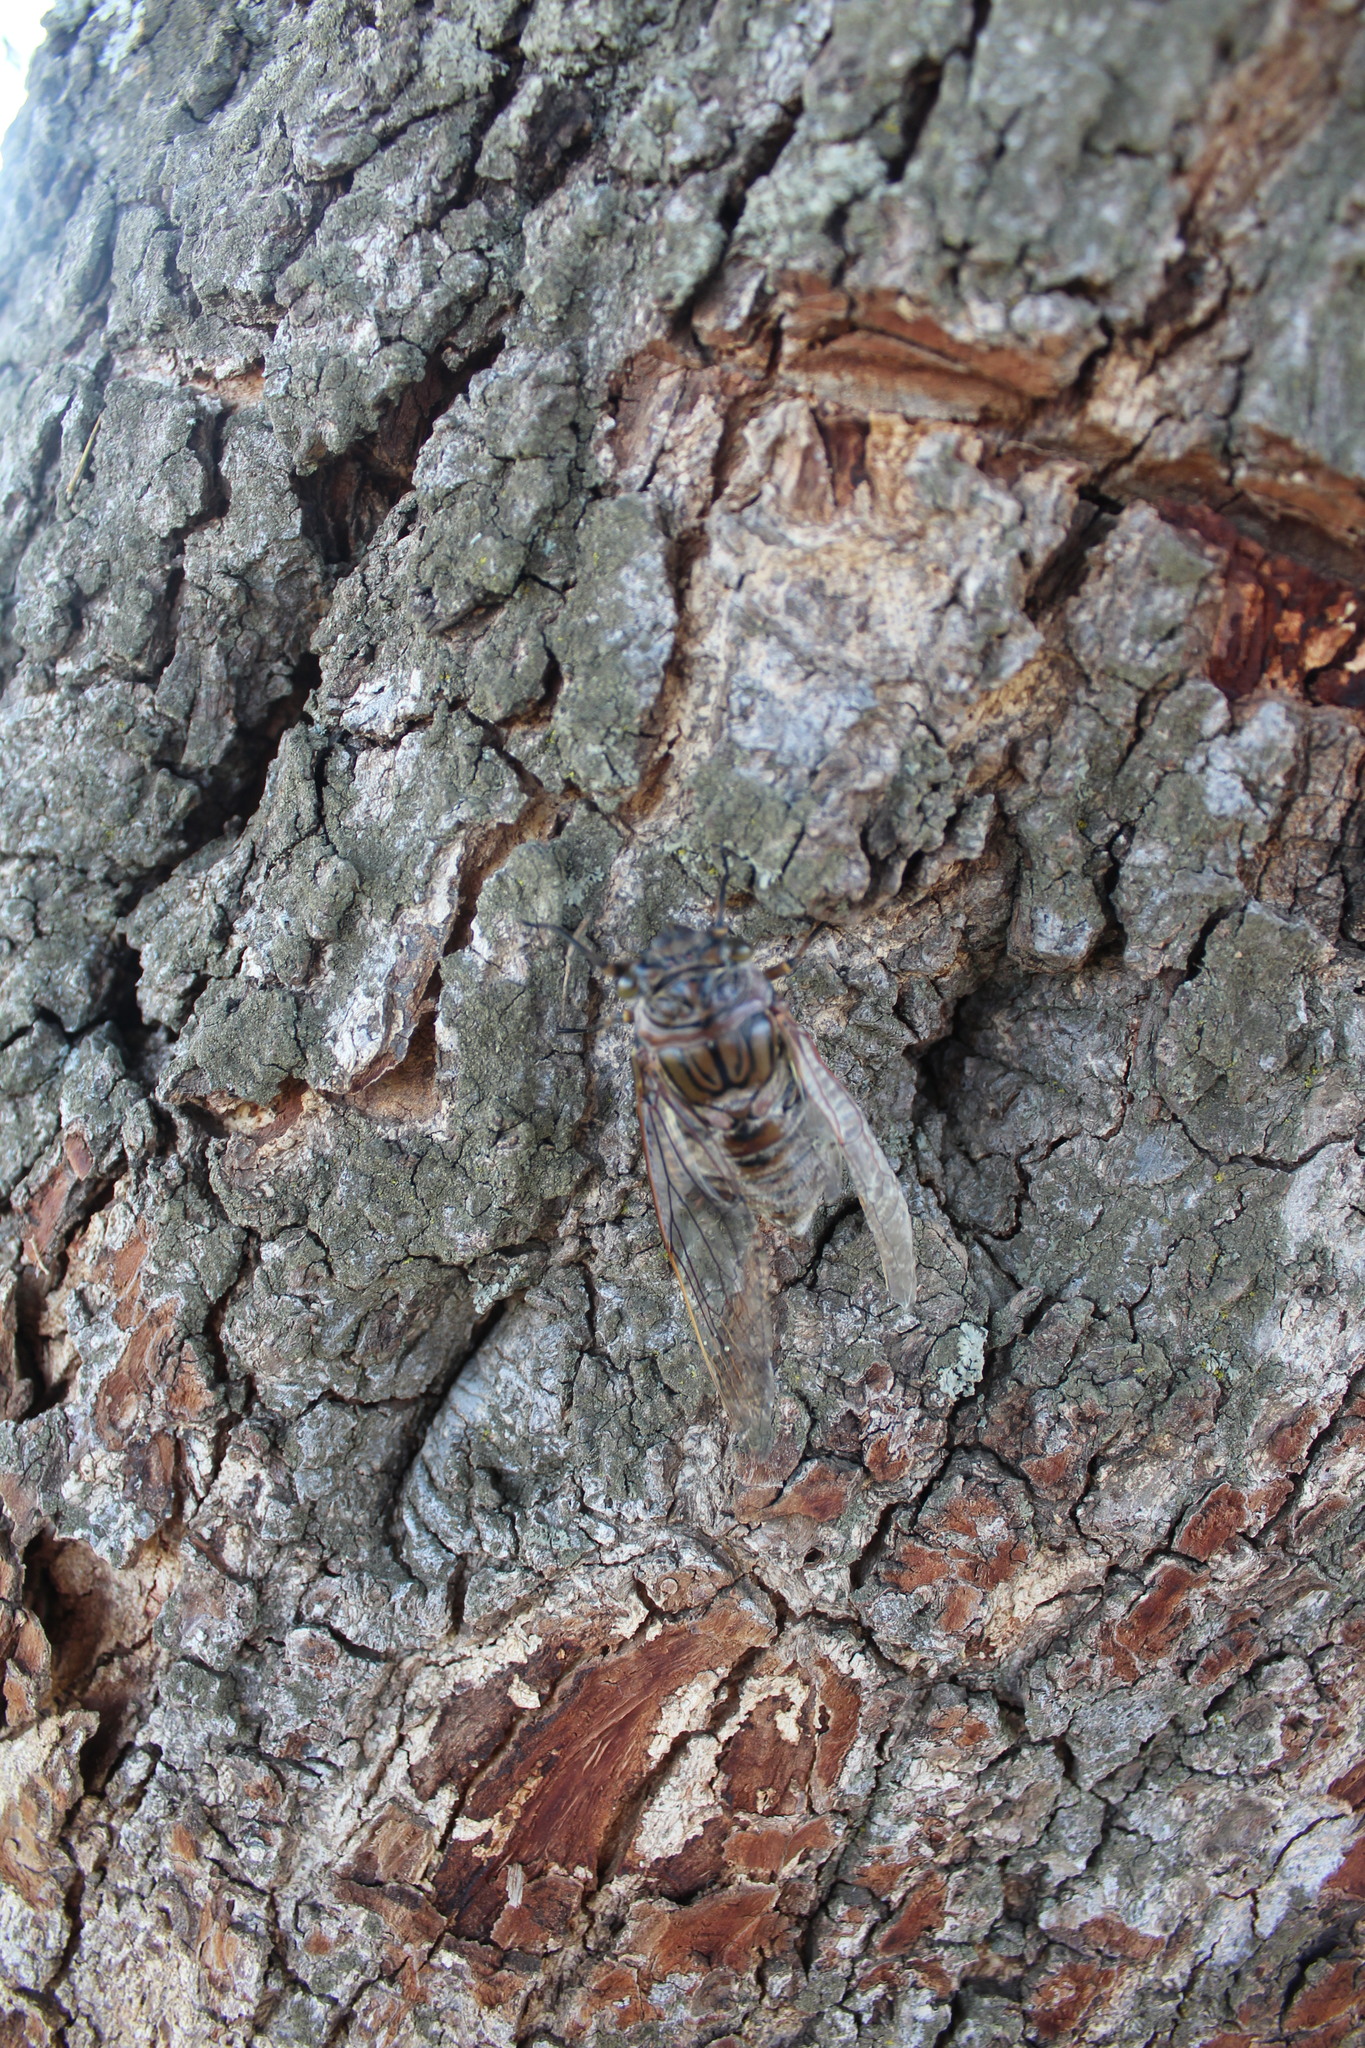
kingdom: Animalia
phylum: Arthropoda
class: Insecta
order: Hemiptera
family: Cicadidae
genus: Quesada
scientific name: Quesada gigas
